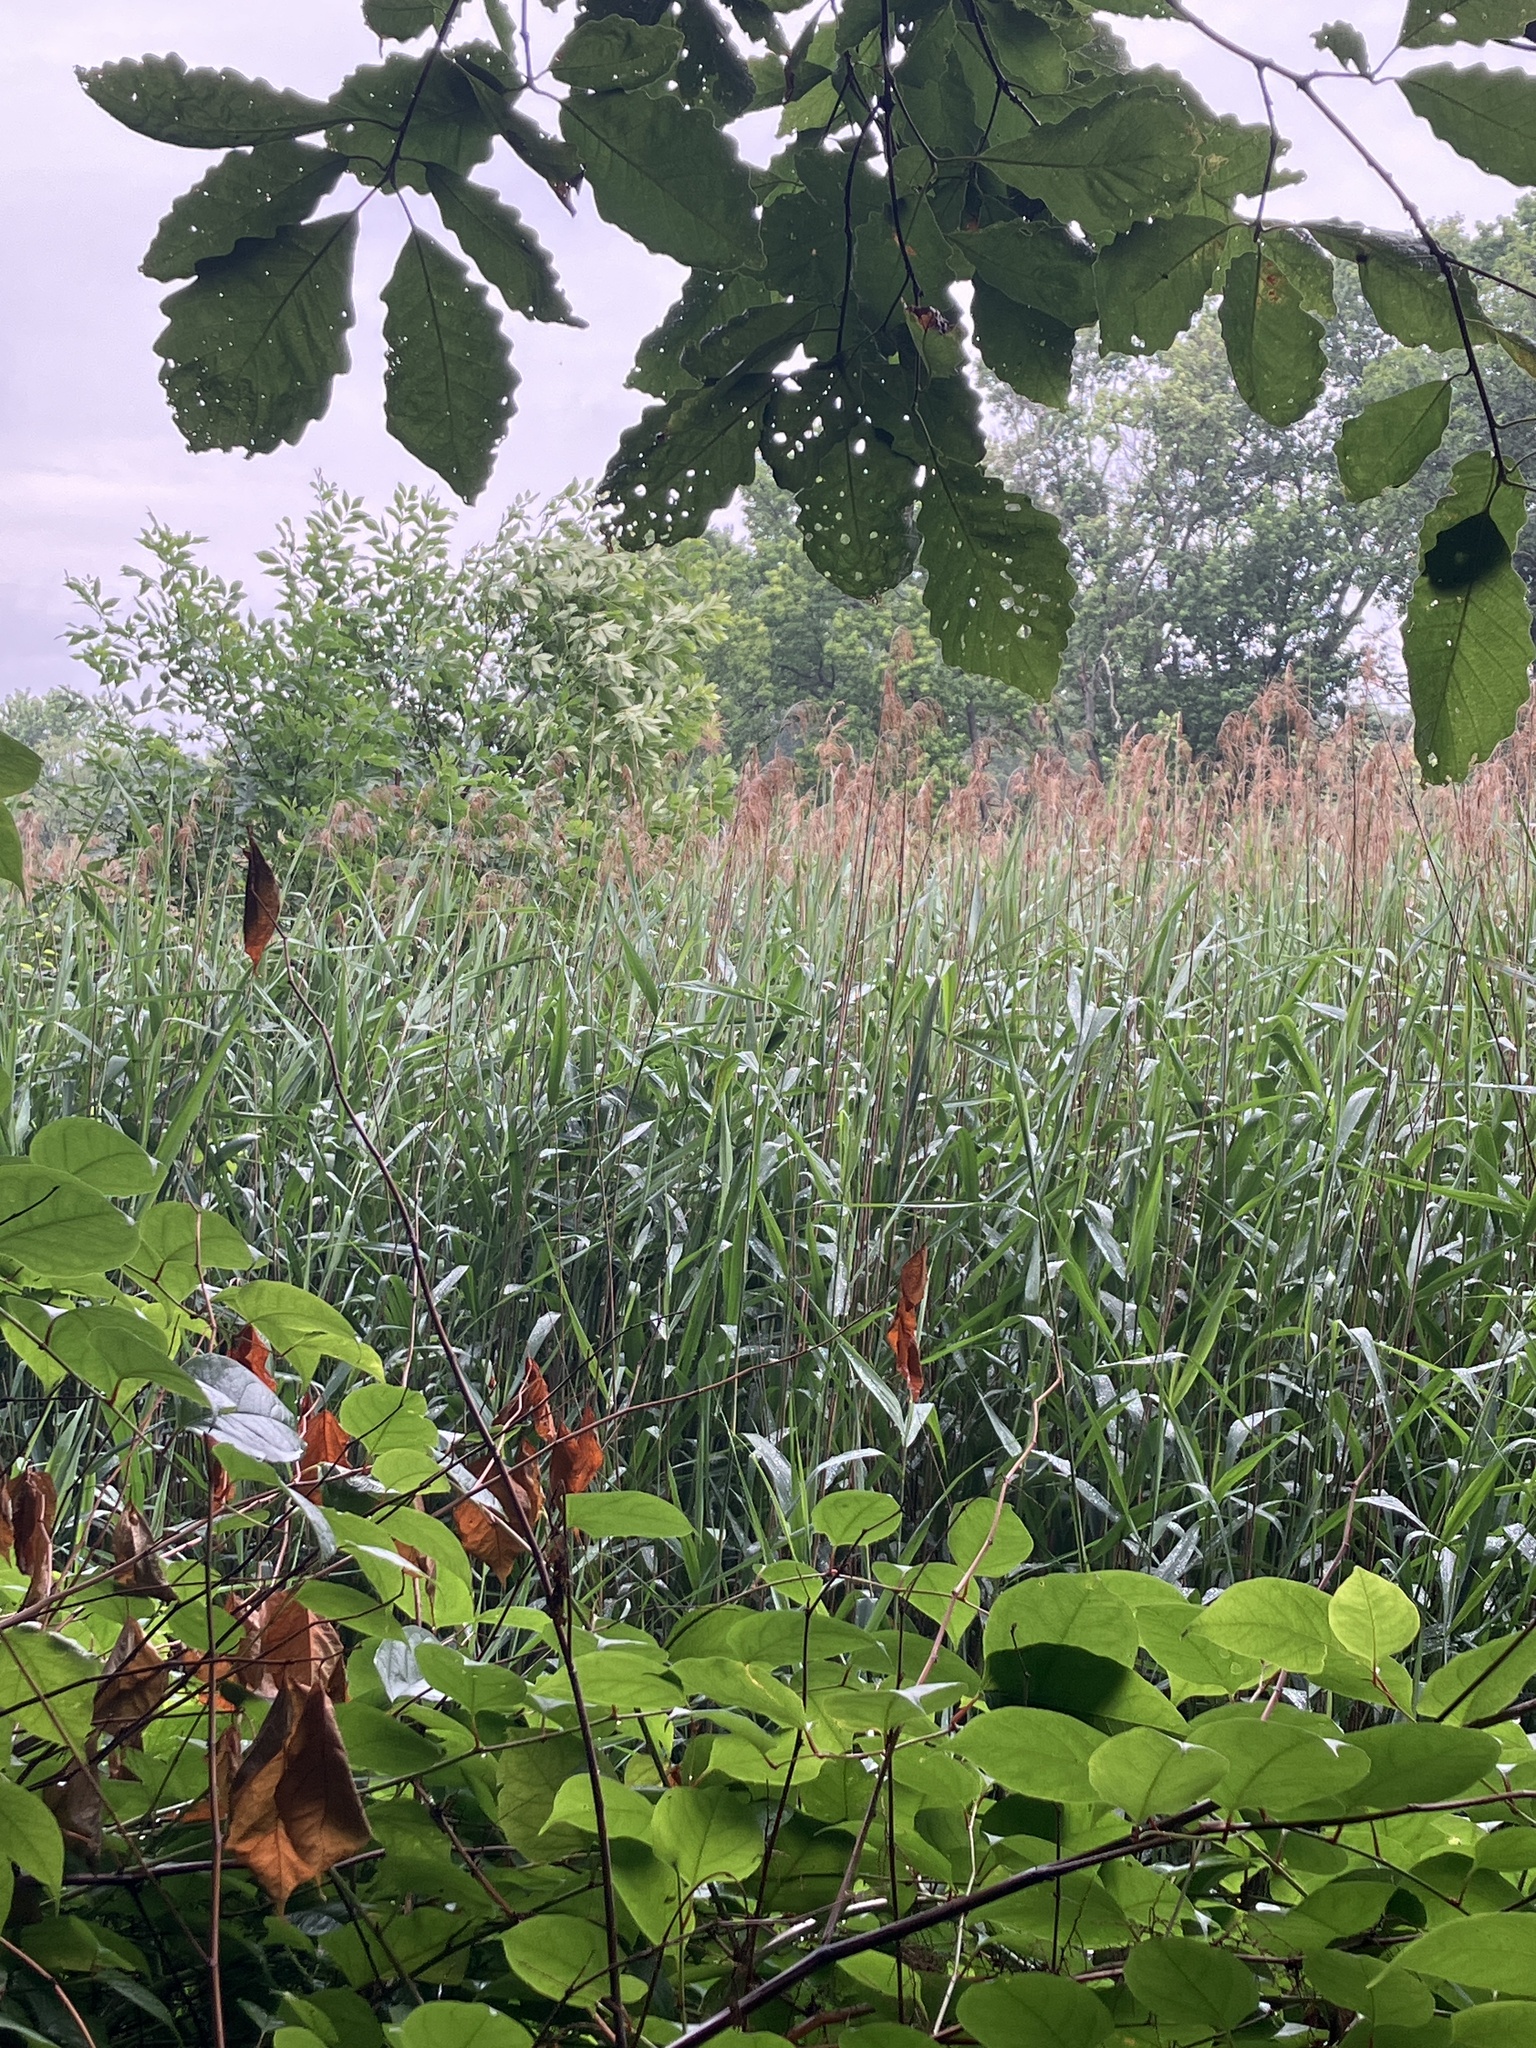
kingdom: Plantae
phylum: Tracheophyta
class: Liliopsida
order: Poales
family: Poaceae
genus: Phragmites
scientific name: Phragmites australis
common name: Common reed
